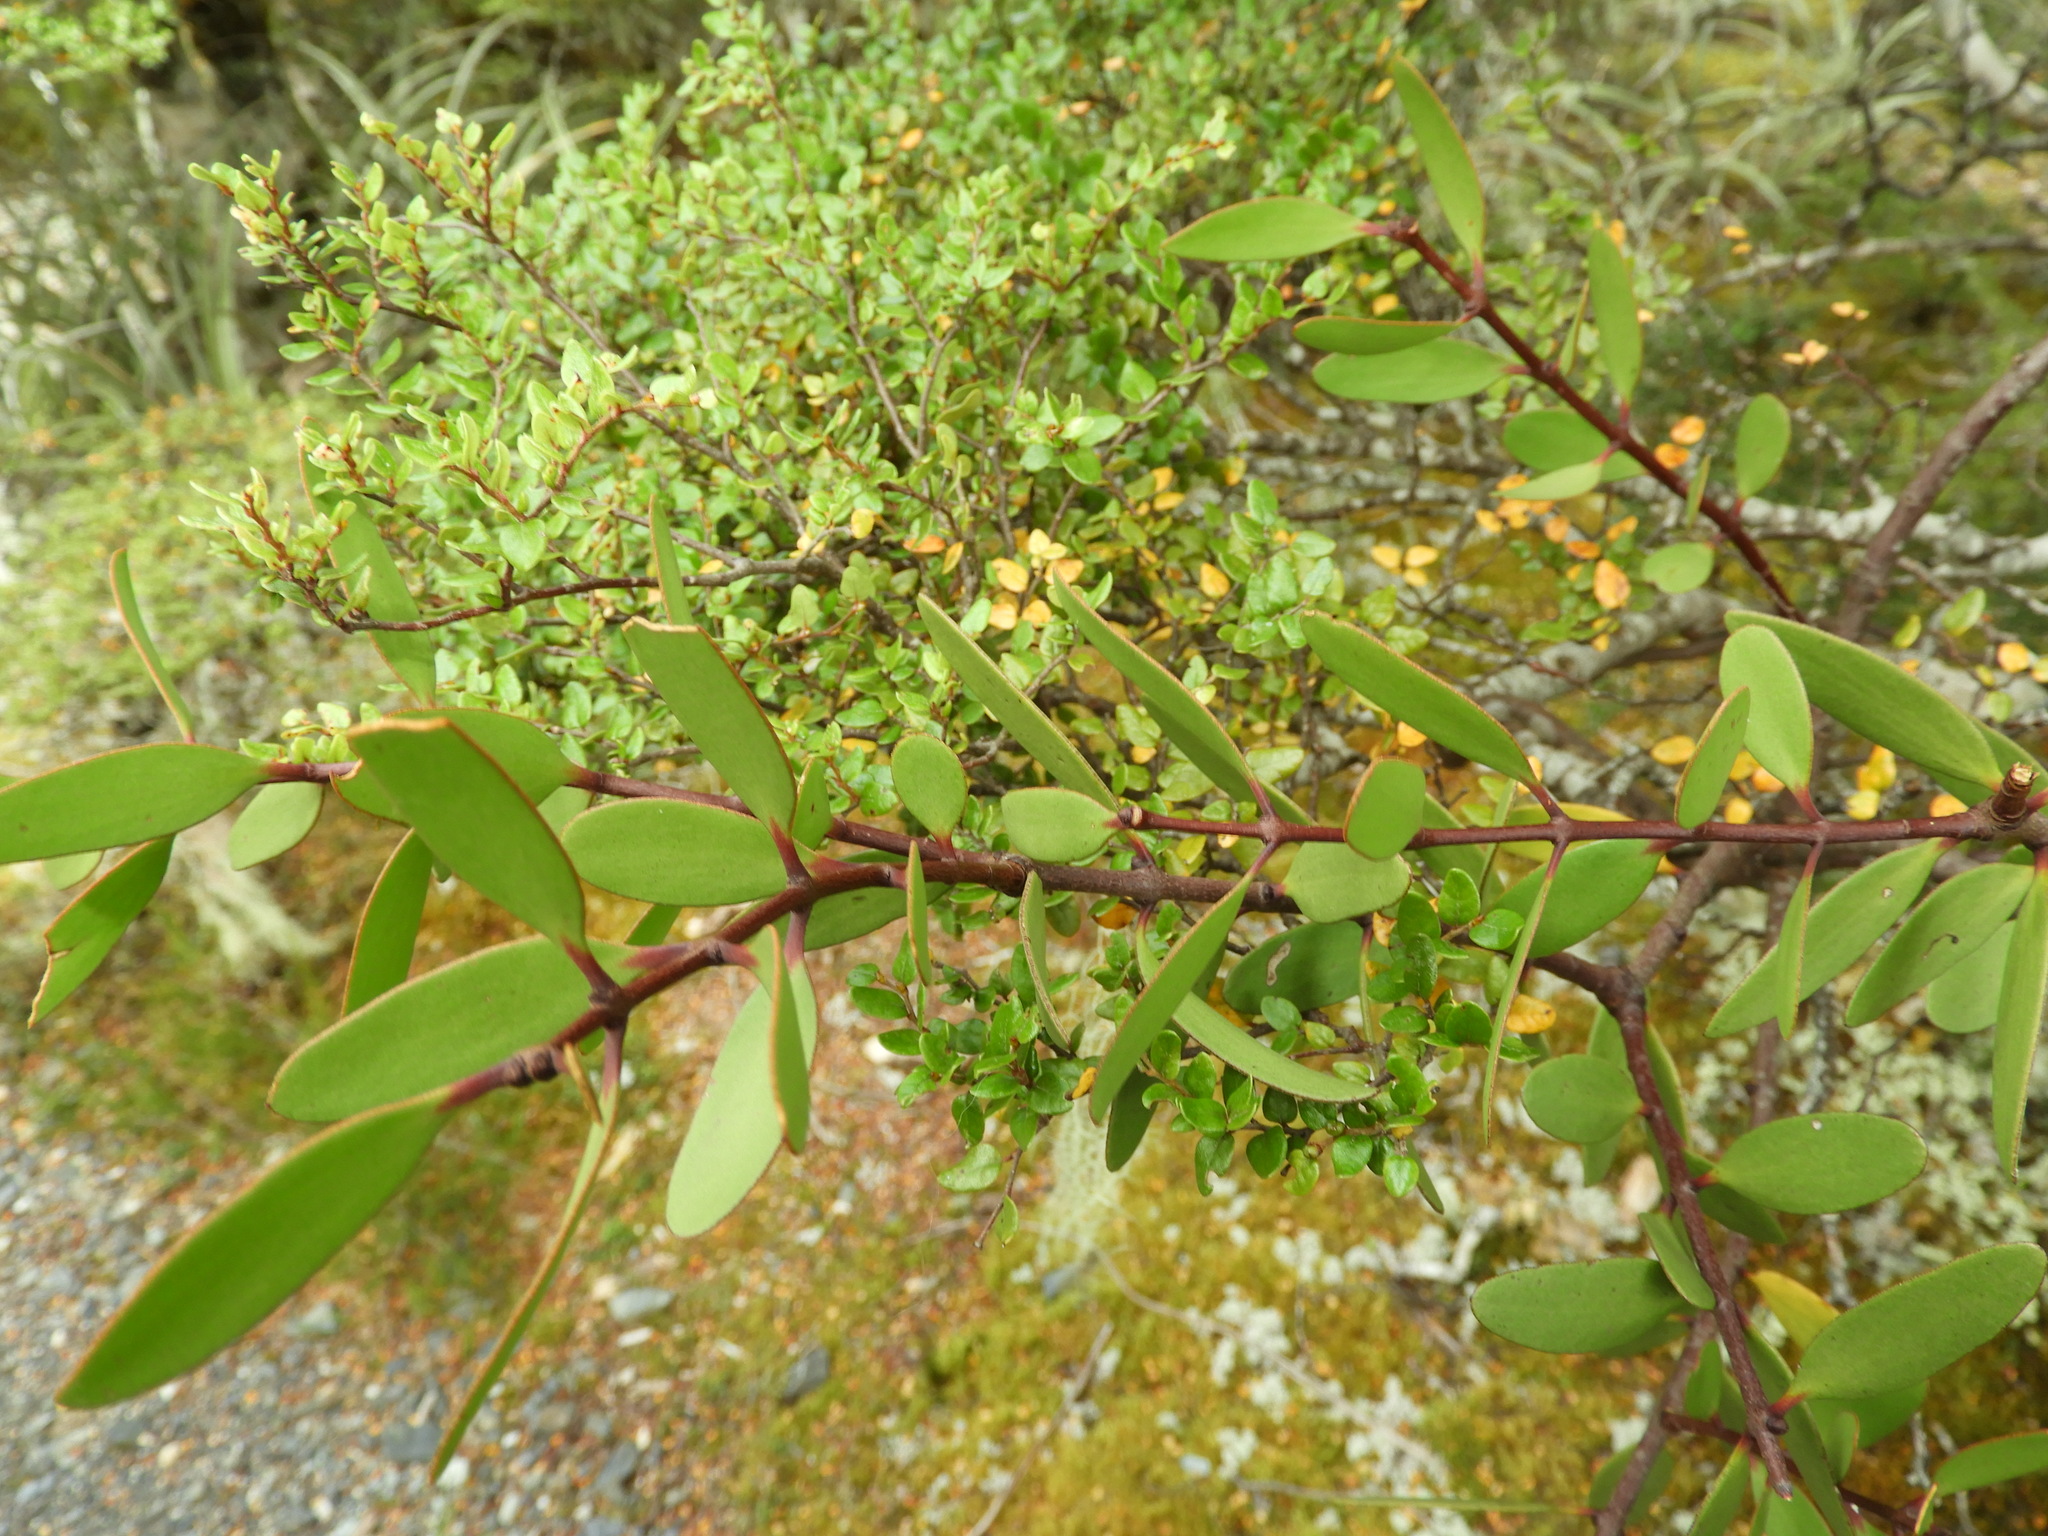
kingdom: Plantae
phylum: Tracheophyta
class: Magnoliopsida
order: Santalales
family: Loranthaceae
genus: Alepis
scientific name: Alepis flavida
